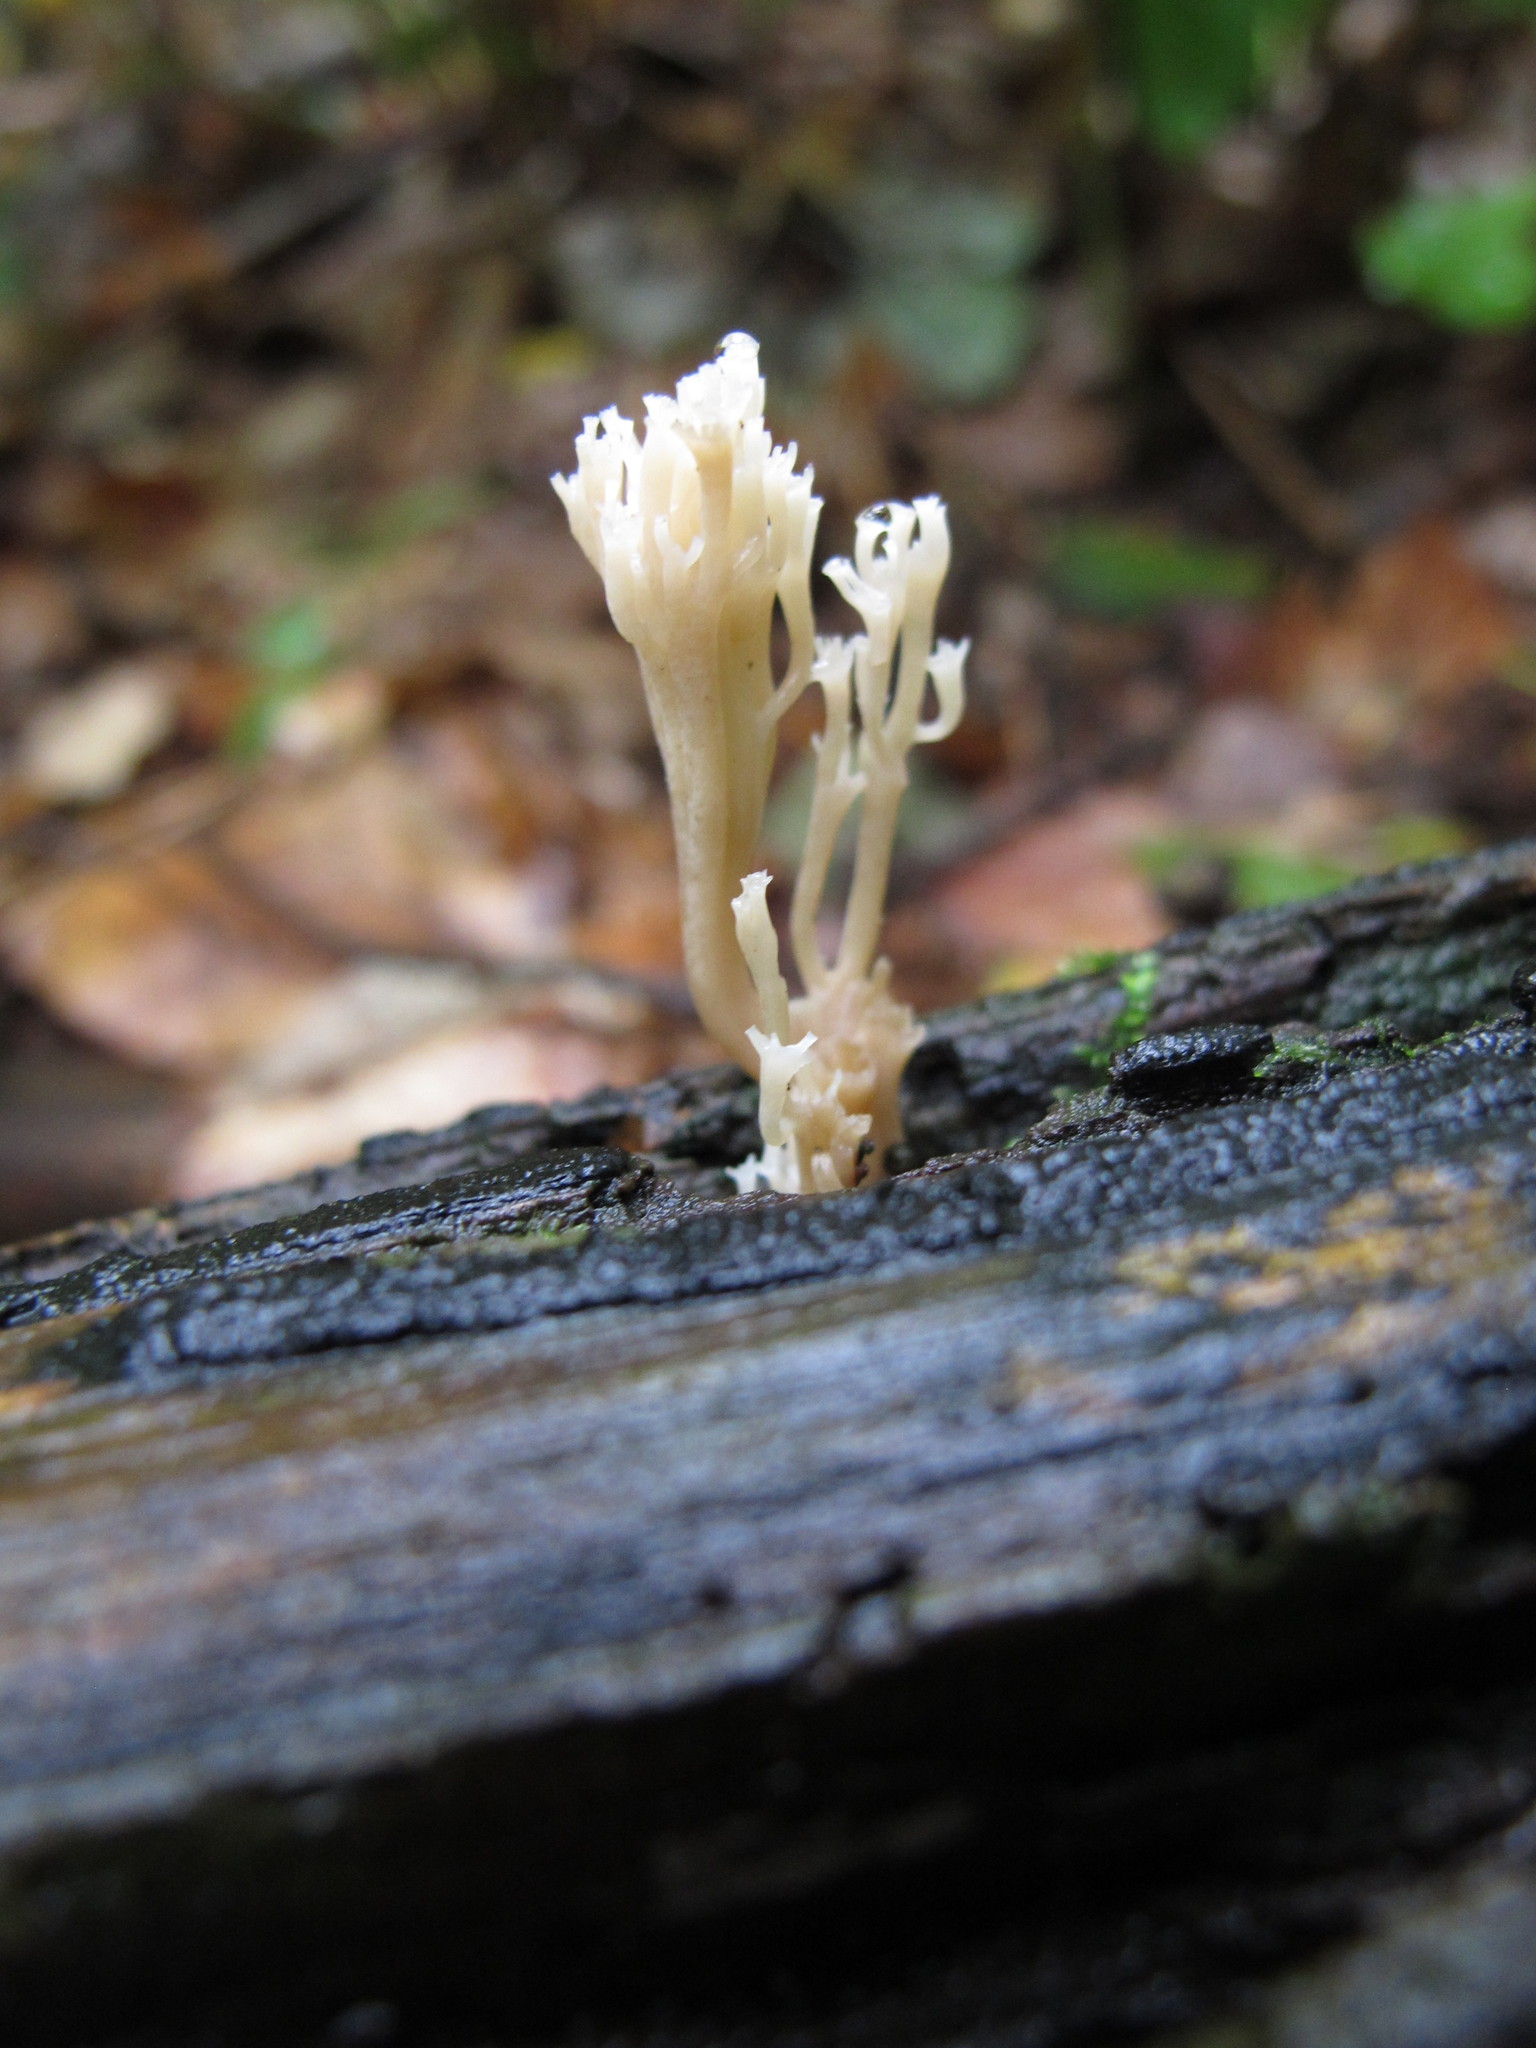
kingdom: Fungi
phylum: Basidiomycota
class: Agaricomycetes
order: Russulales
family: Auriscalpiaceae
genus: Artomyces
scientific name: Artomyces pyxidatus
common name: Crown-tipped coral fungus
